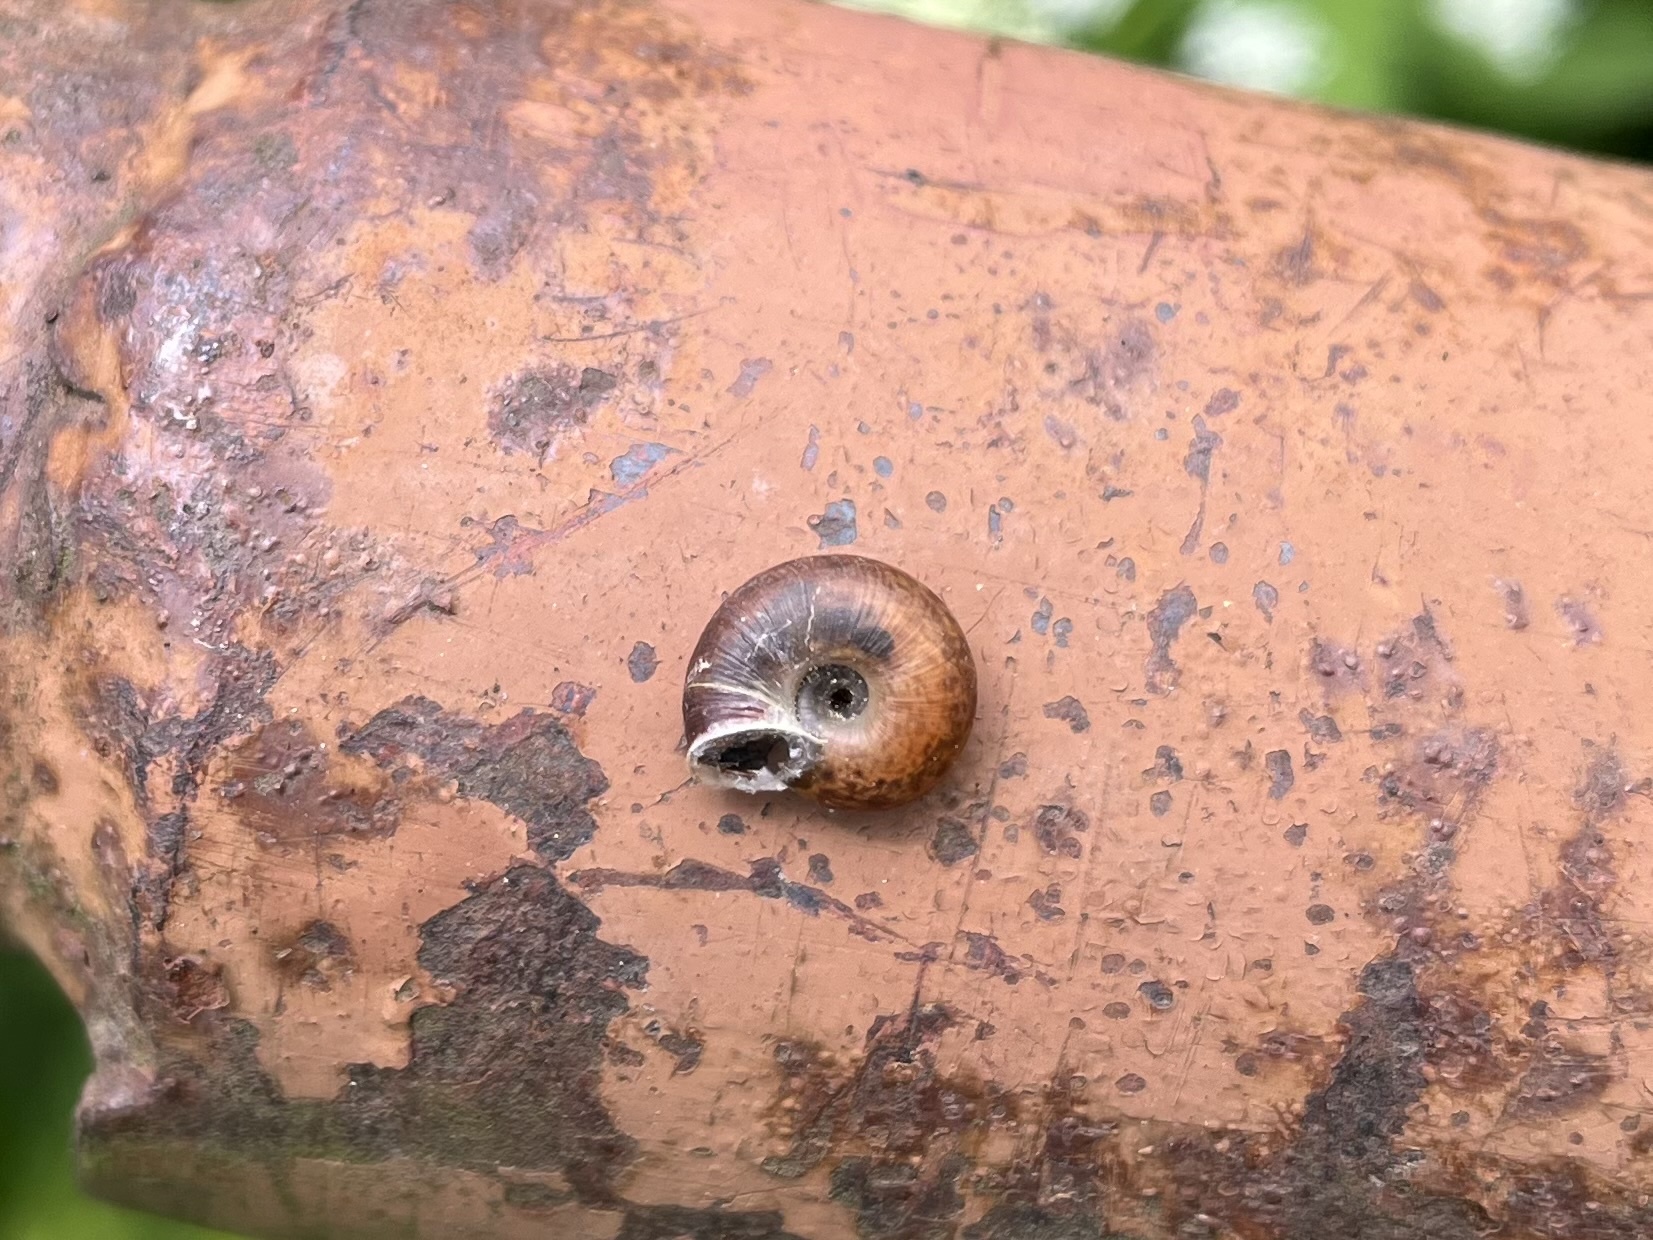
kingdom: Animalia
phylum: Mollusca
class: Gastropoda
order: Stylommatophora
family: Hygromiidae
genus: Urticicola
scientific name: Urticicola umbrosus
